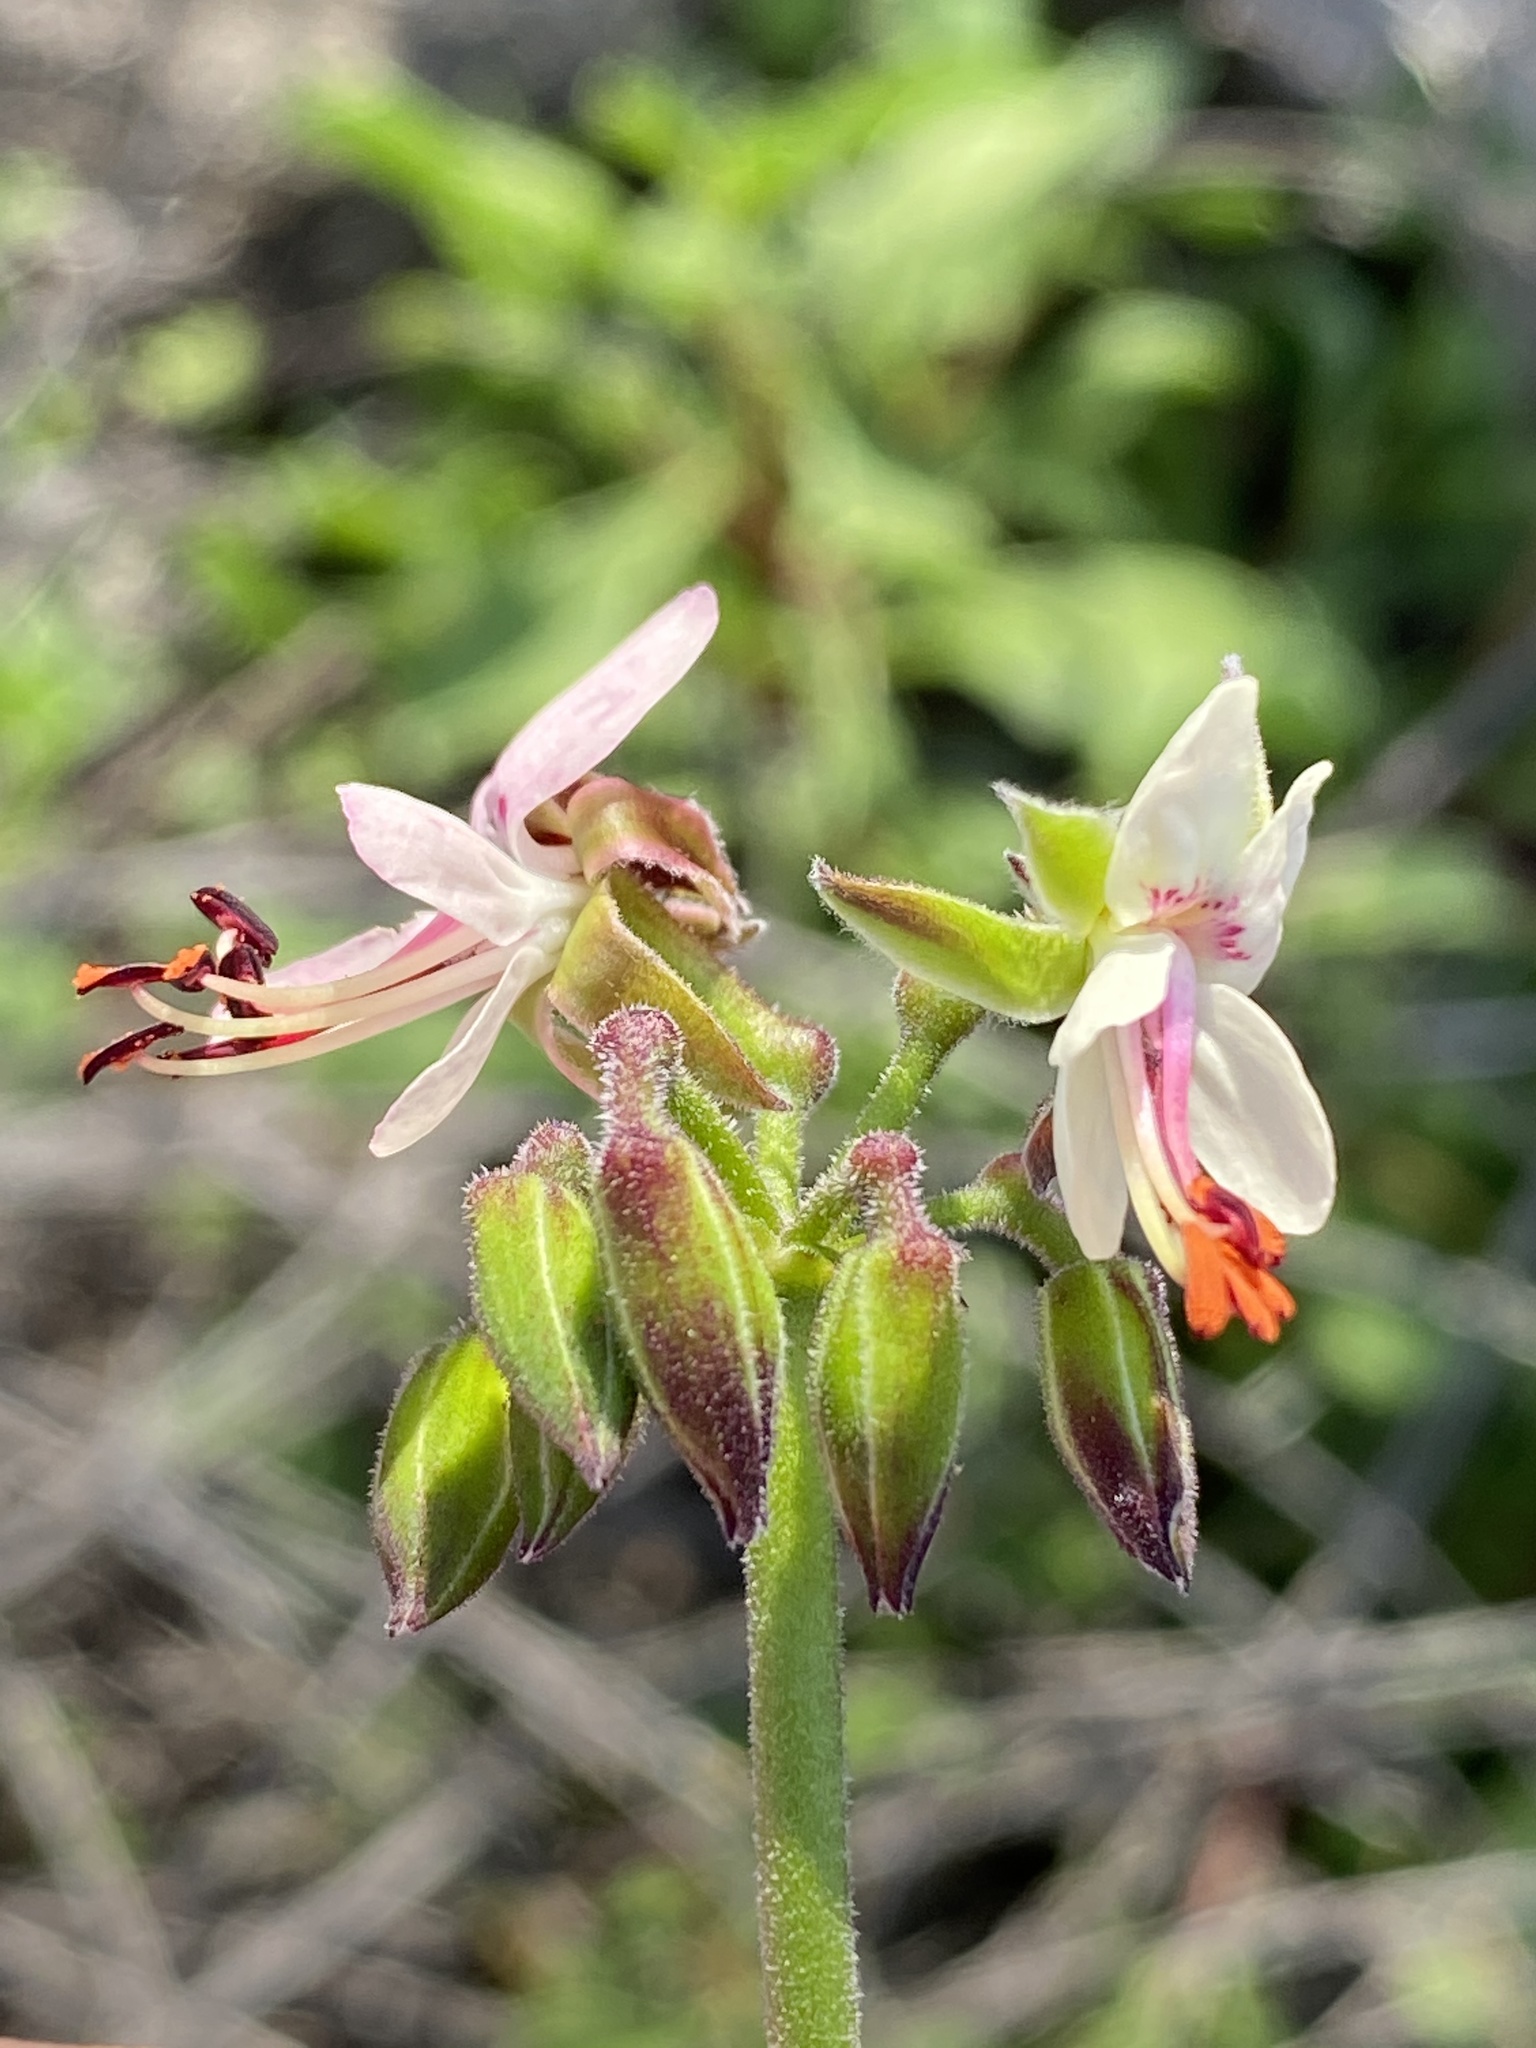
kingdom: Plantae
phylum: Tracheophyta
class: Magnoliopsida
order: Geraniales
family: Geraniaceae
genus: Pelargonium
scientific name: Pelargonium laxum
